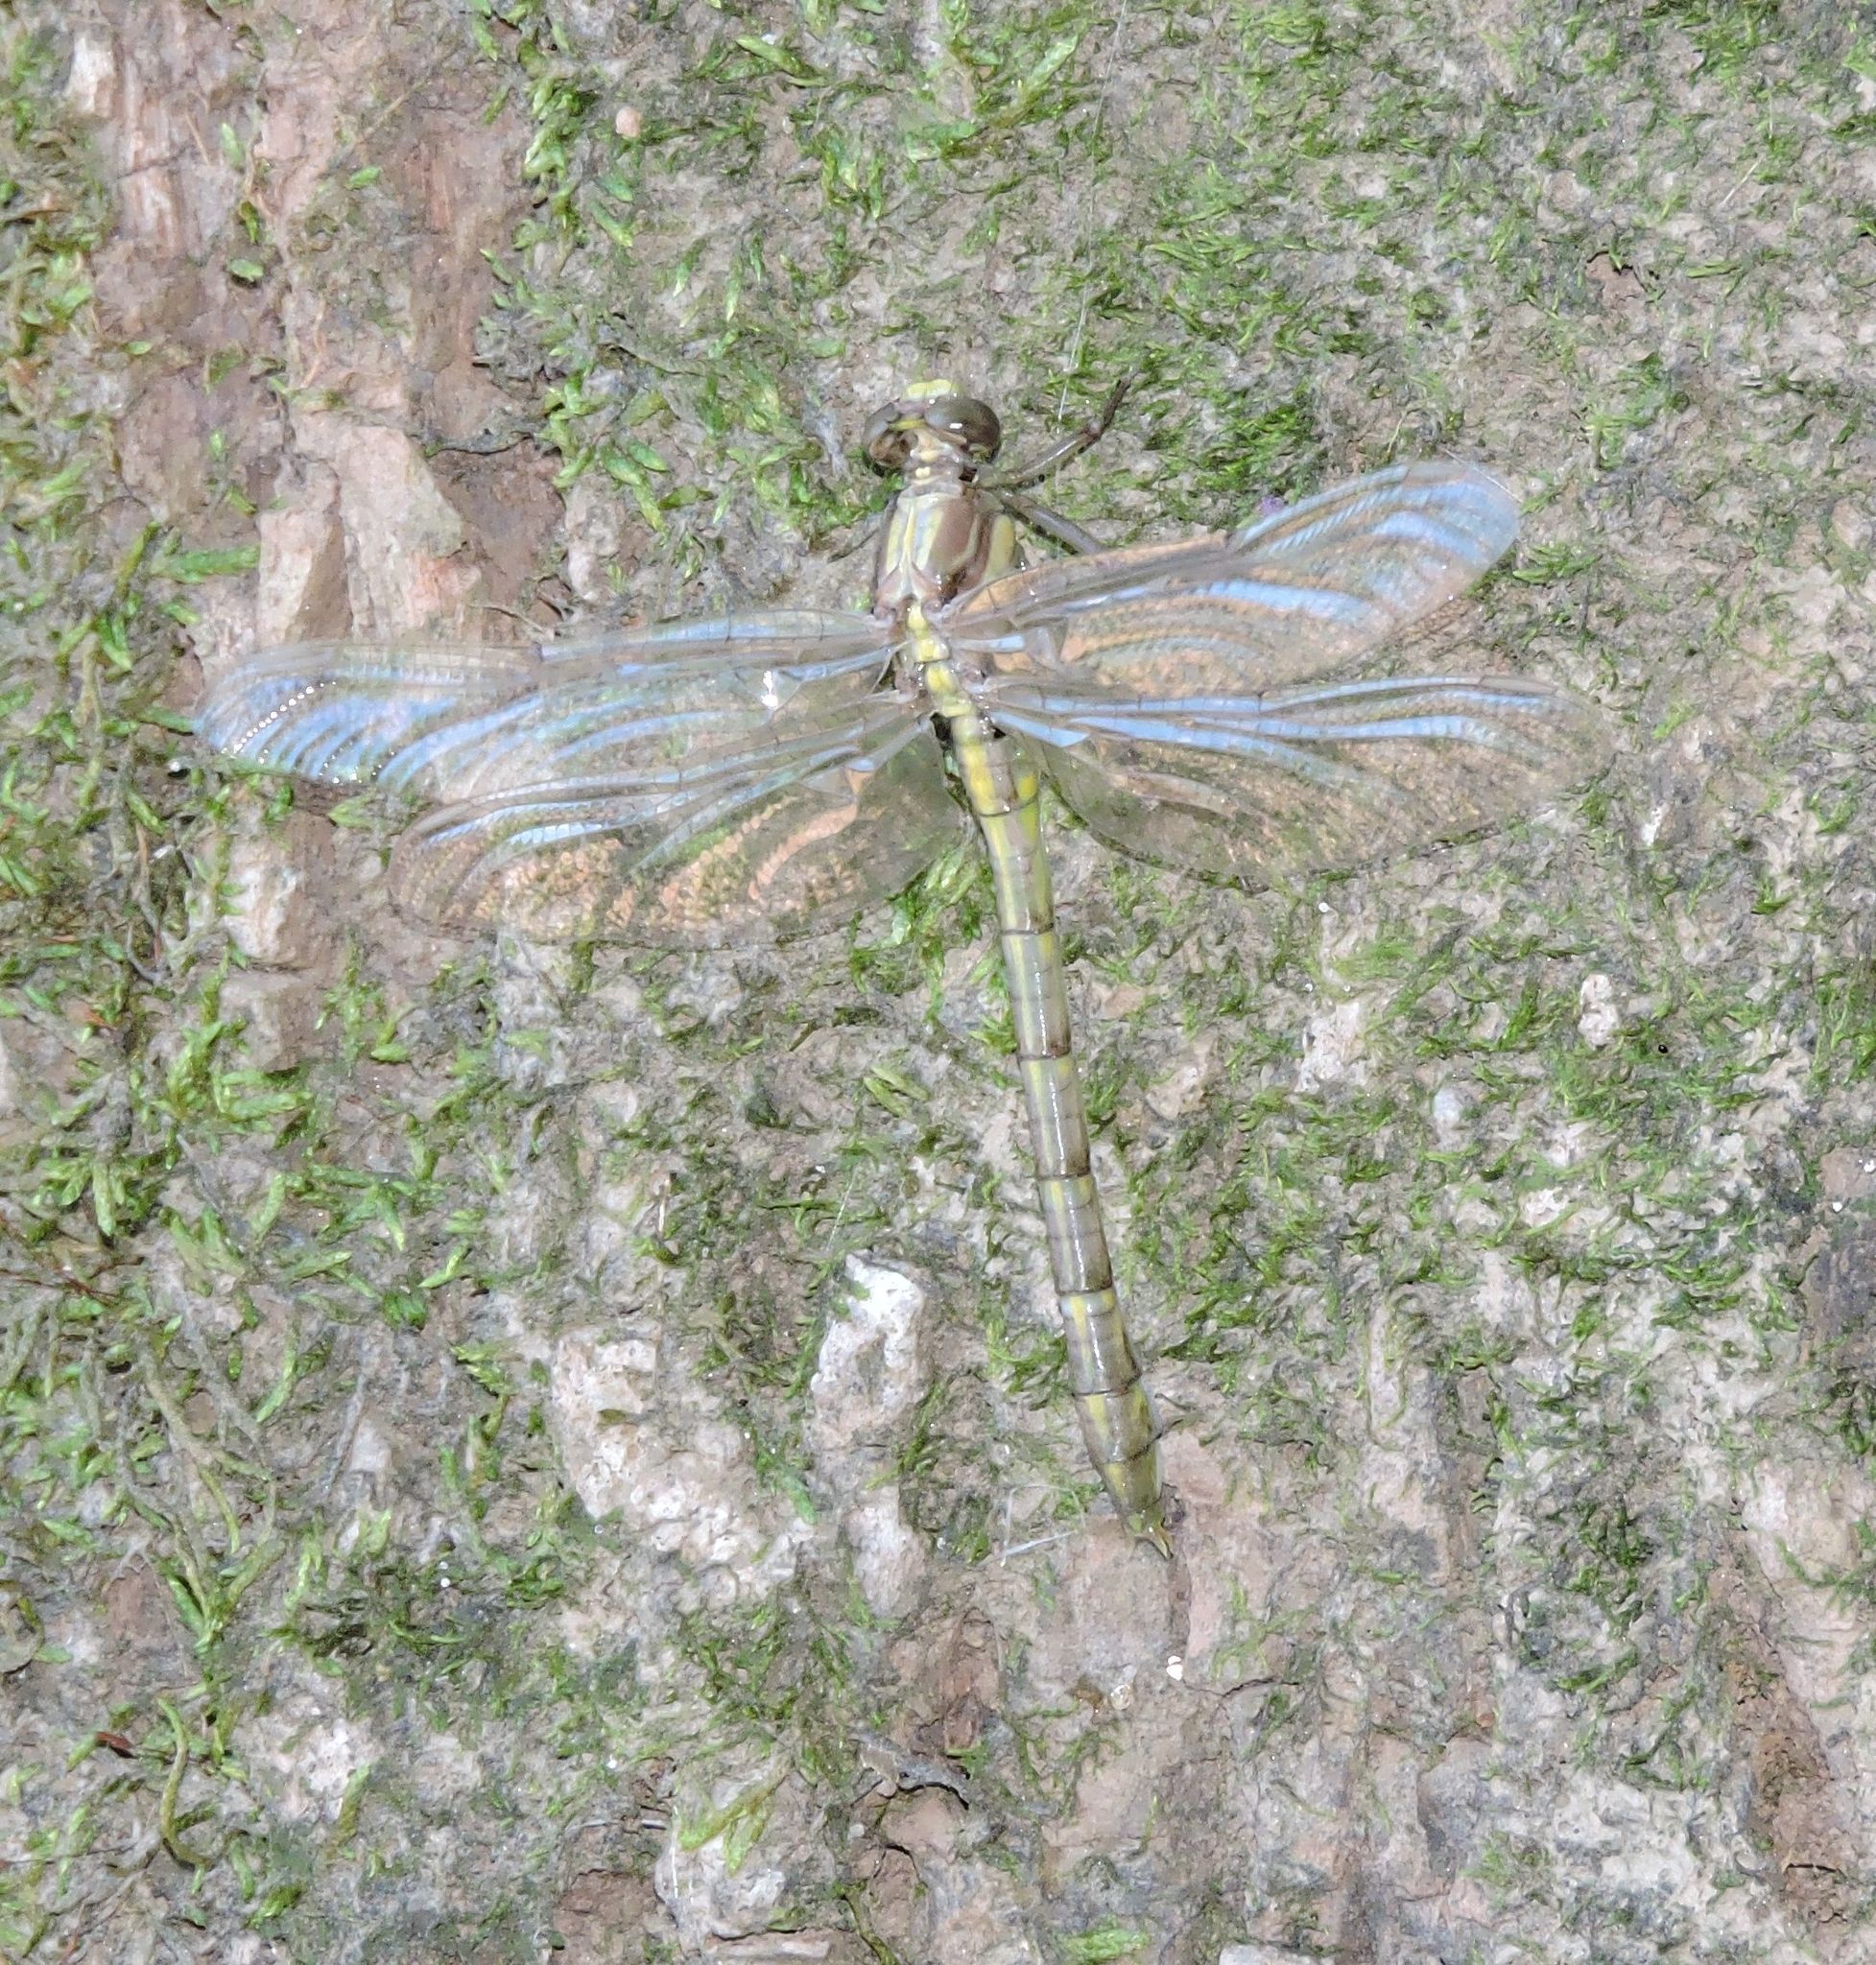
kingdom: Animalia
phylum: Arthropoda
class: Insecta
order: Odonata
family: Gomphidae
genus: Dromogomphus
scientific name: Dromogomphus spinosus
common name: Black-shouldered spinyleg
